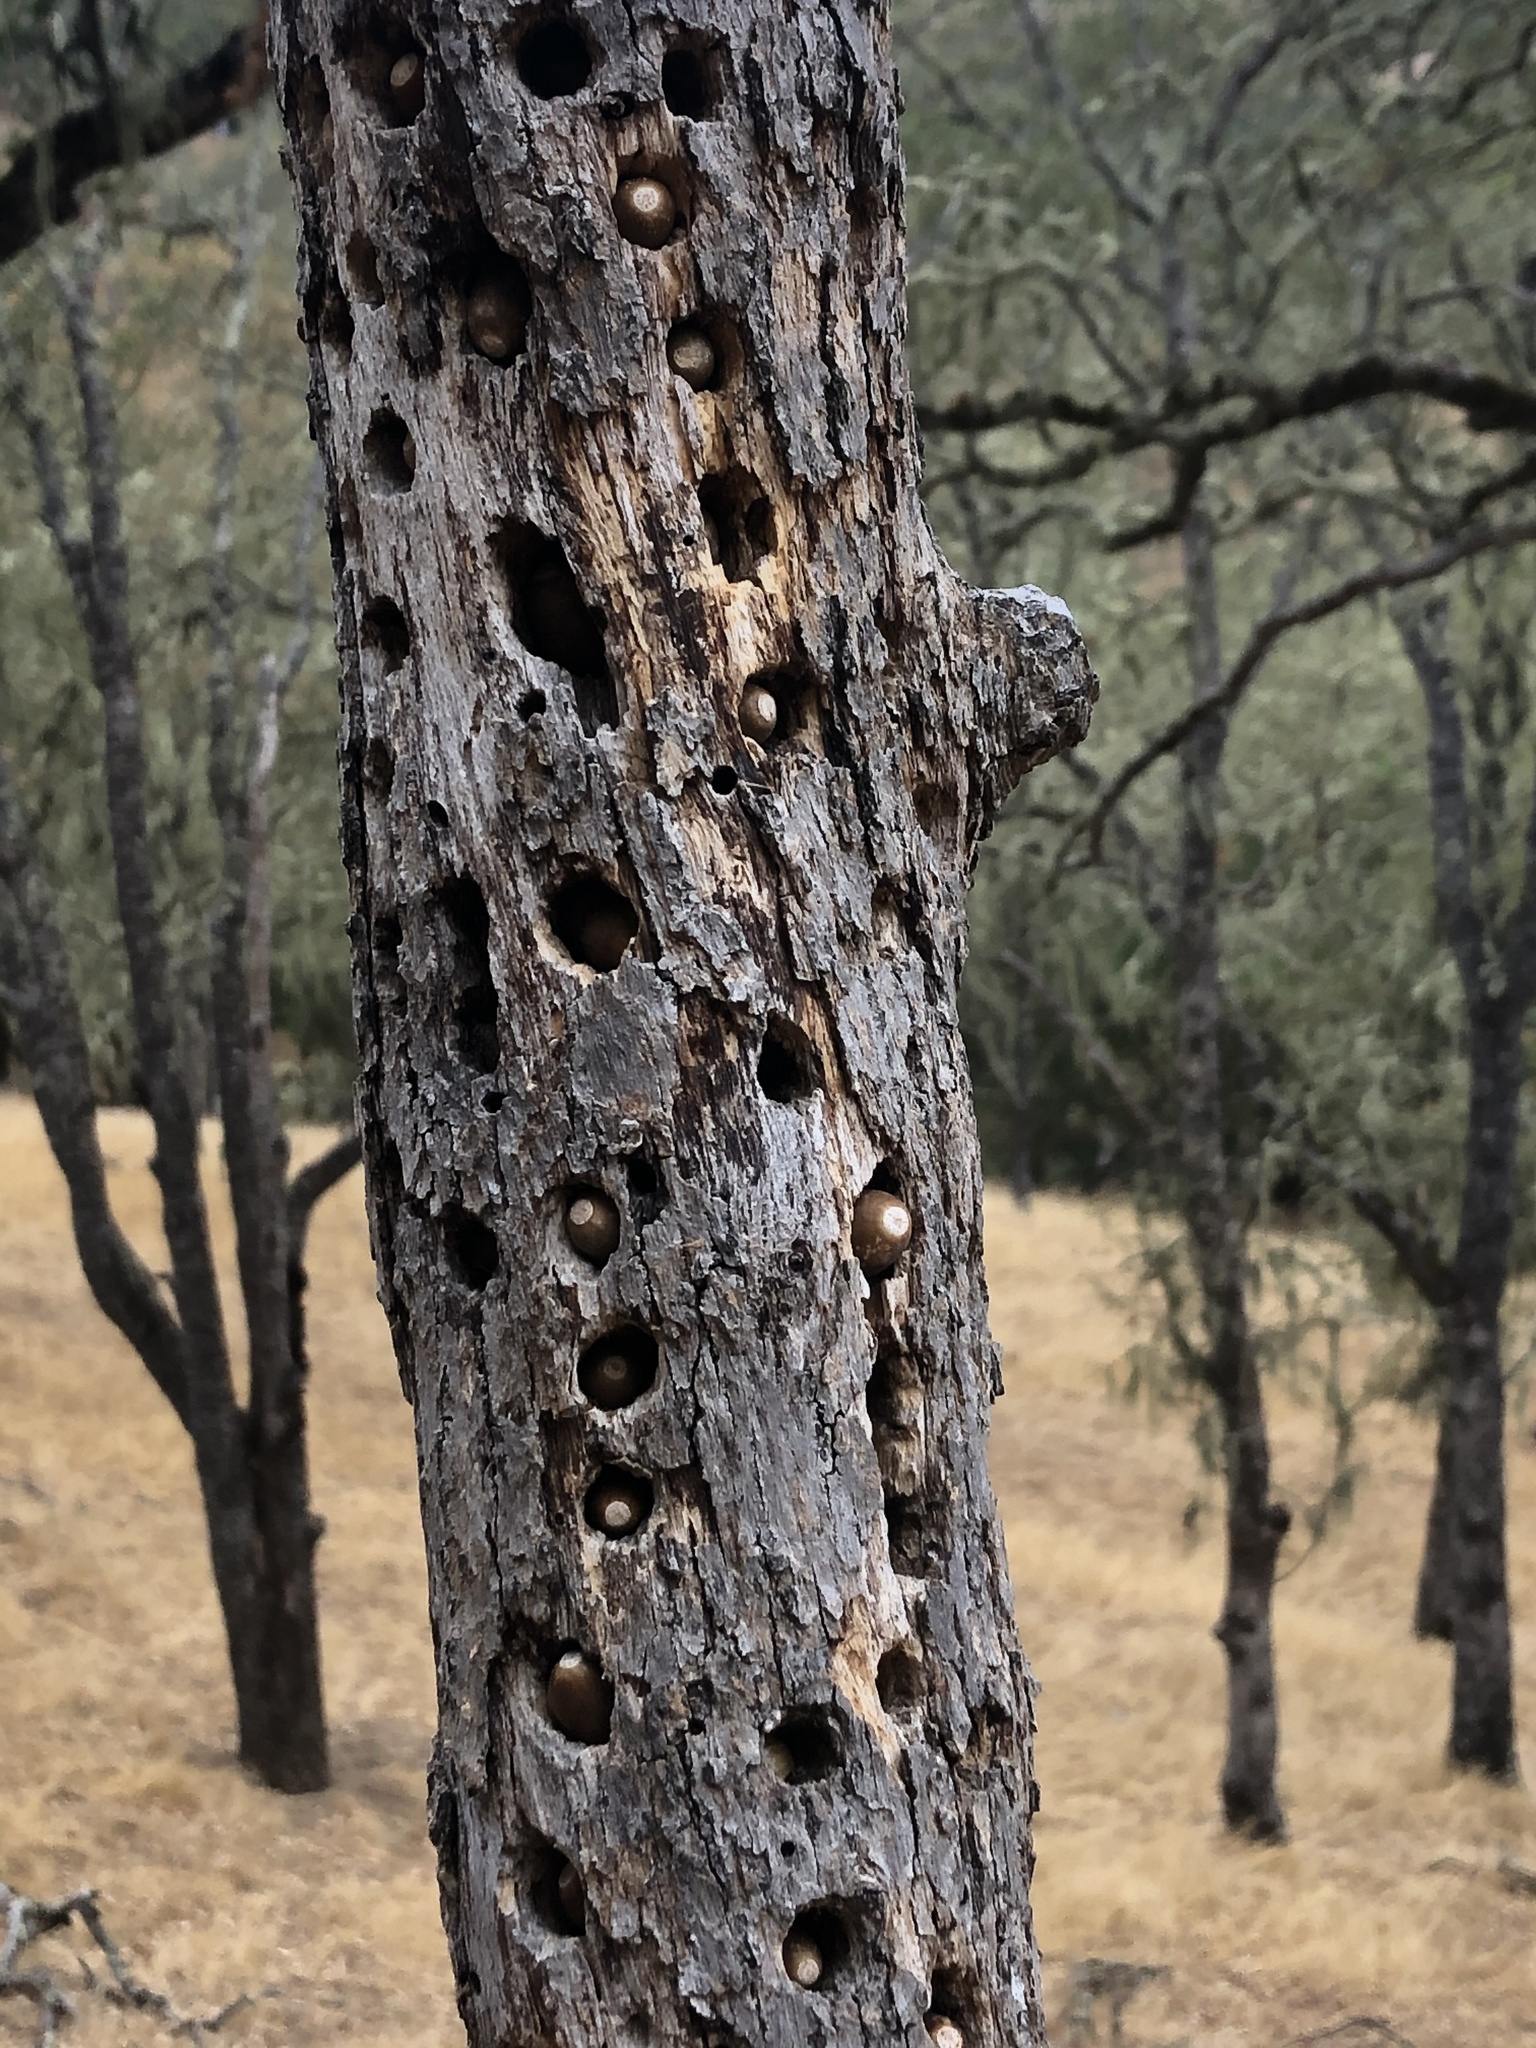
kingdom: Animalia
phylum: Chordata
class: Aves
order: Piciformes
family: Picidae
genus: Melanerpes
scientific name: Melanerpes formicivorus
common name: Acorn woodpecker
